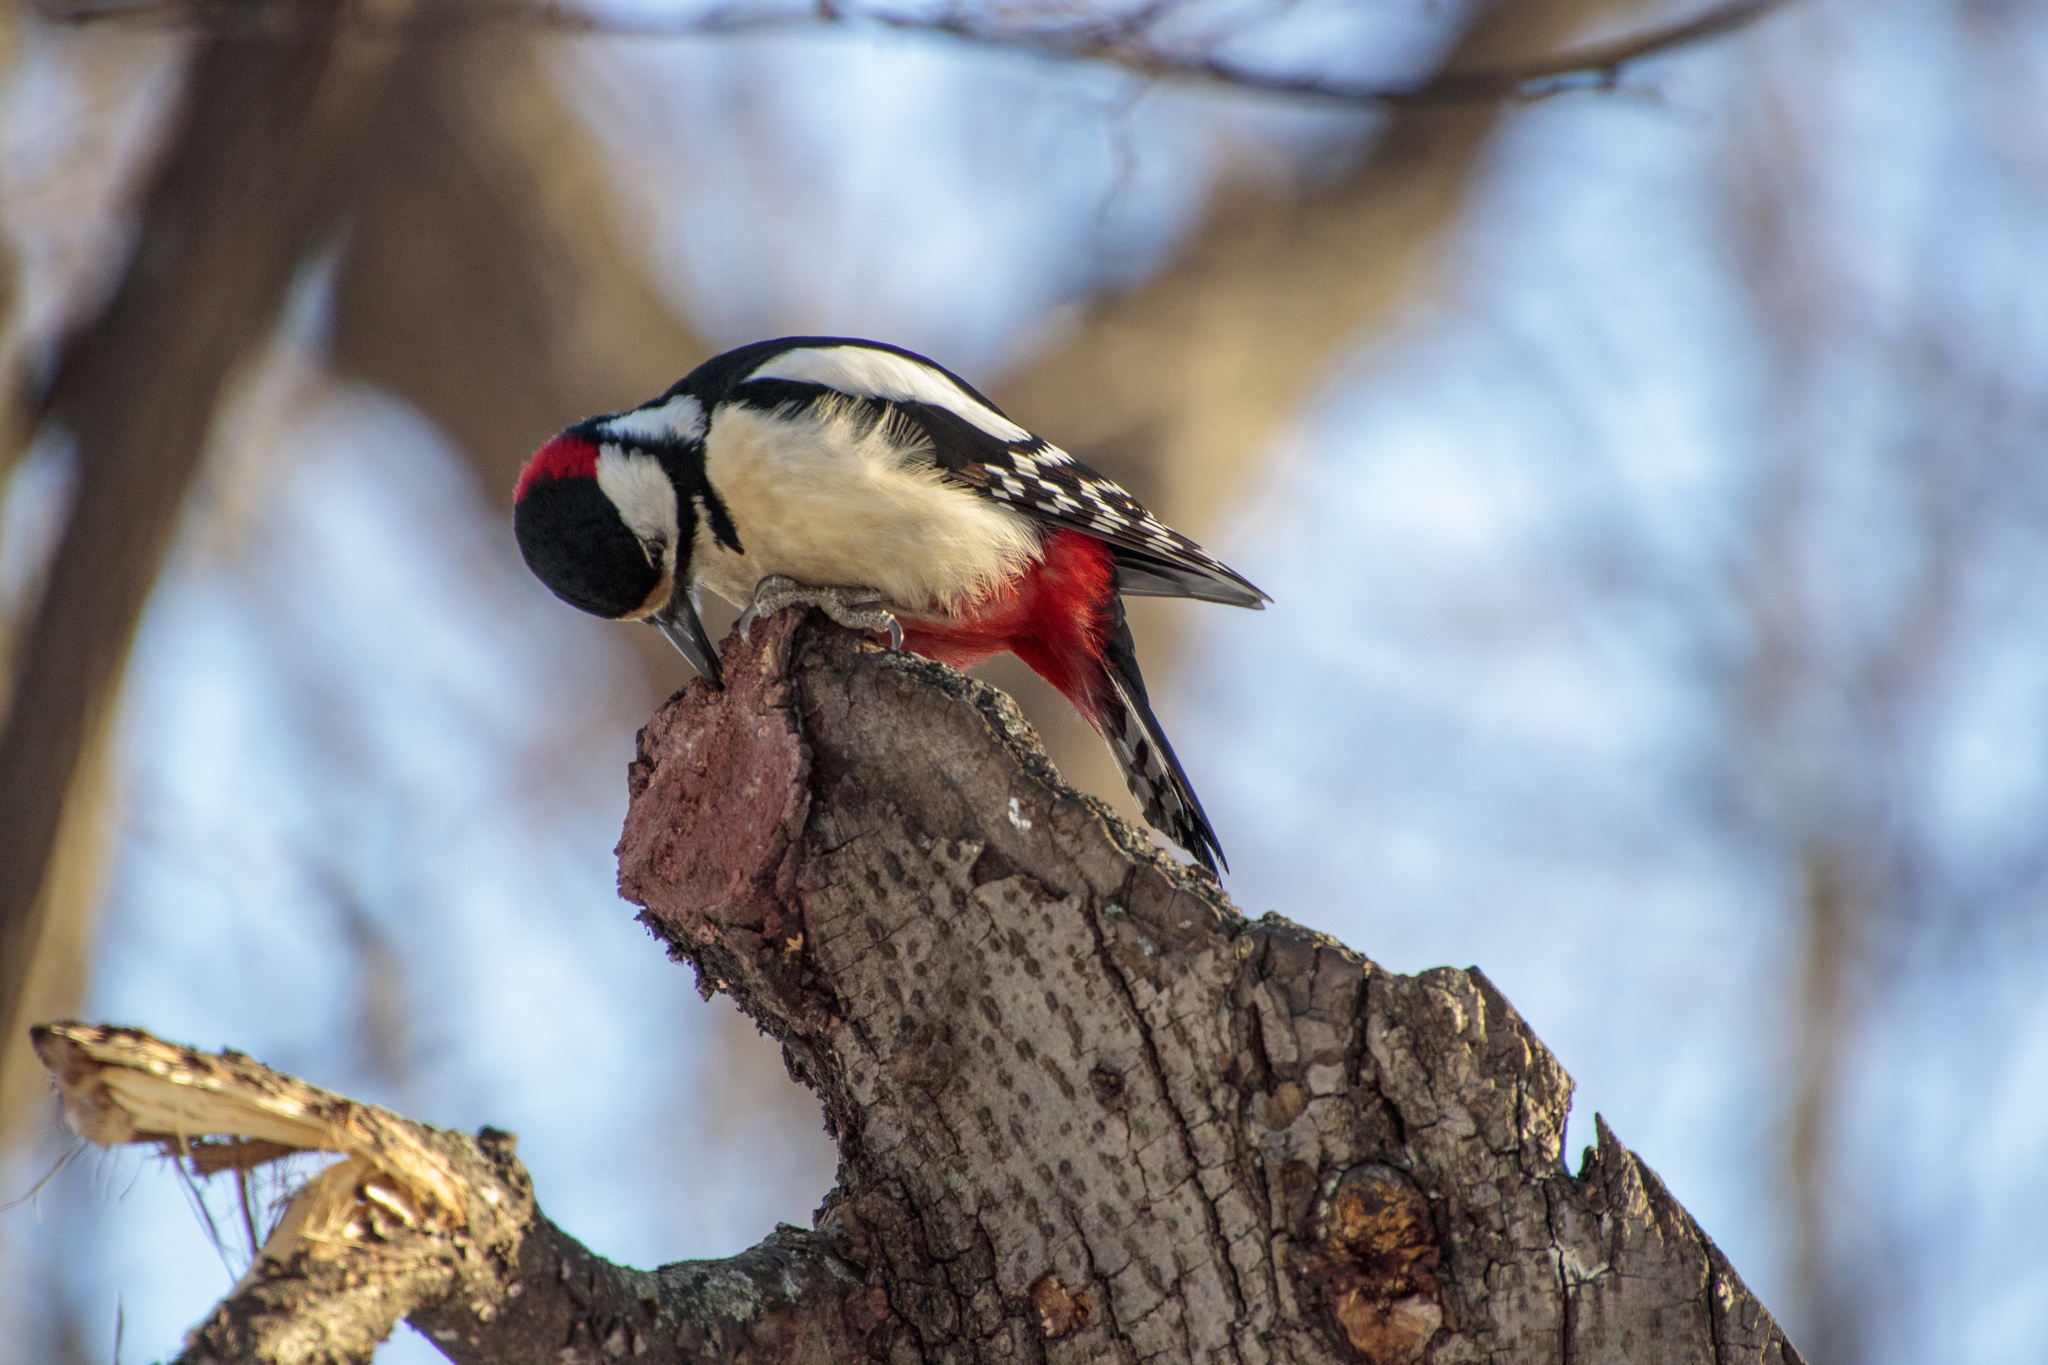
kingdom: Animalia
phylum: Chordata
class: Aves
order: Piciformes
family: Picidae
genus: Dendrocopos
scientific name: Dendrocopos major
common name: Great spotted woodpecker
